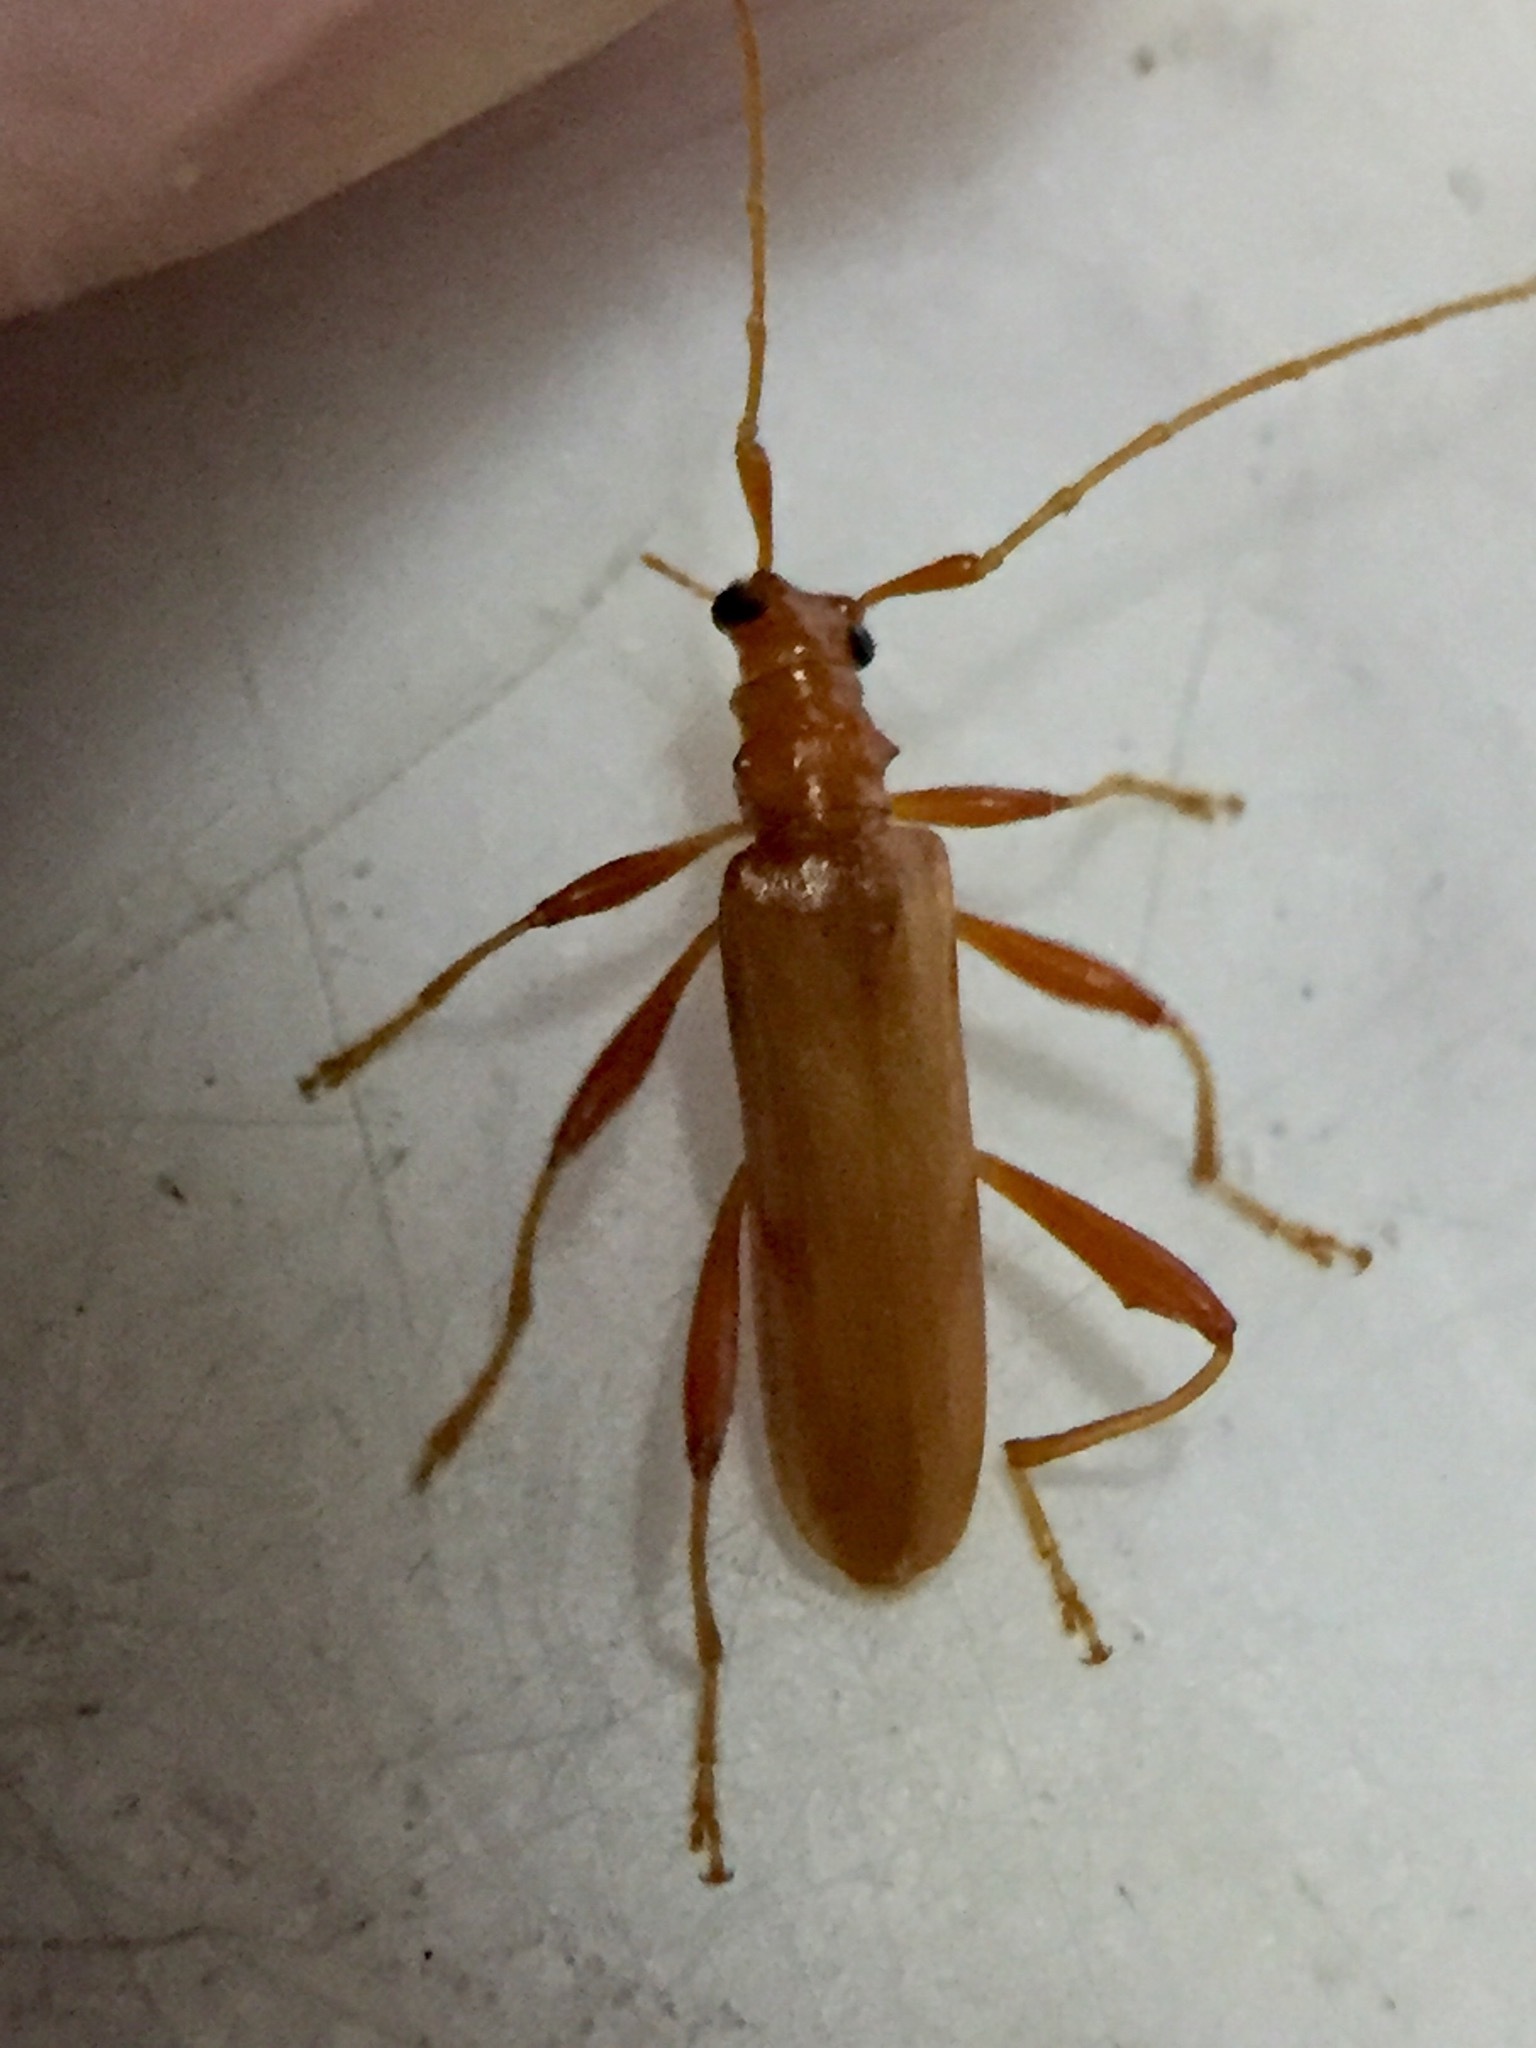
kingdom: Animalia
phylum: Arthropoda
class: Insecta
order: Coleoptera
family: Cerambycidae
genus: Votum
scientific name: Votum munda
